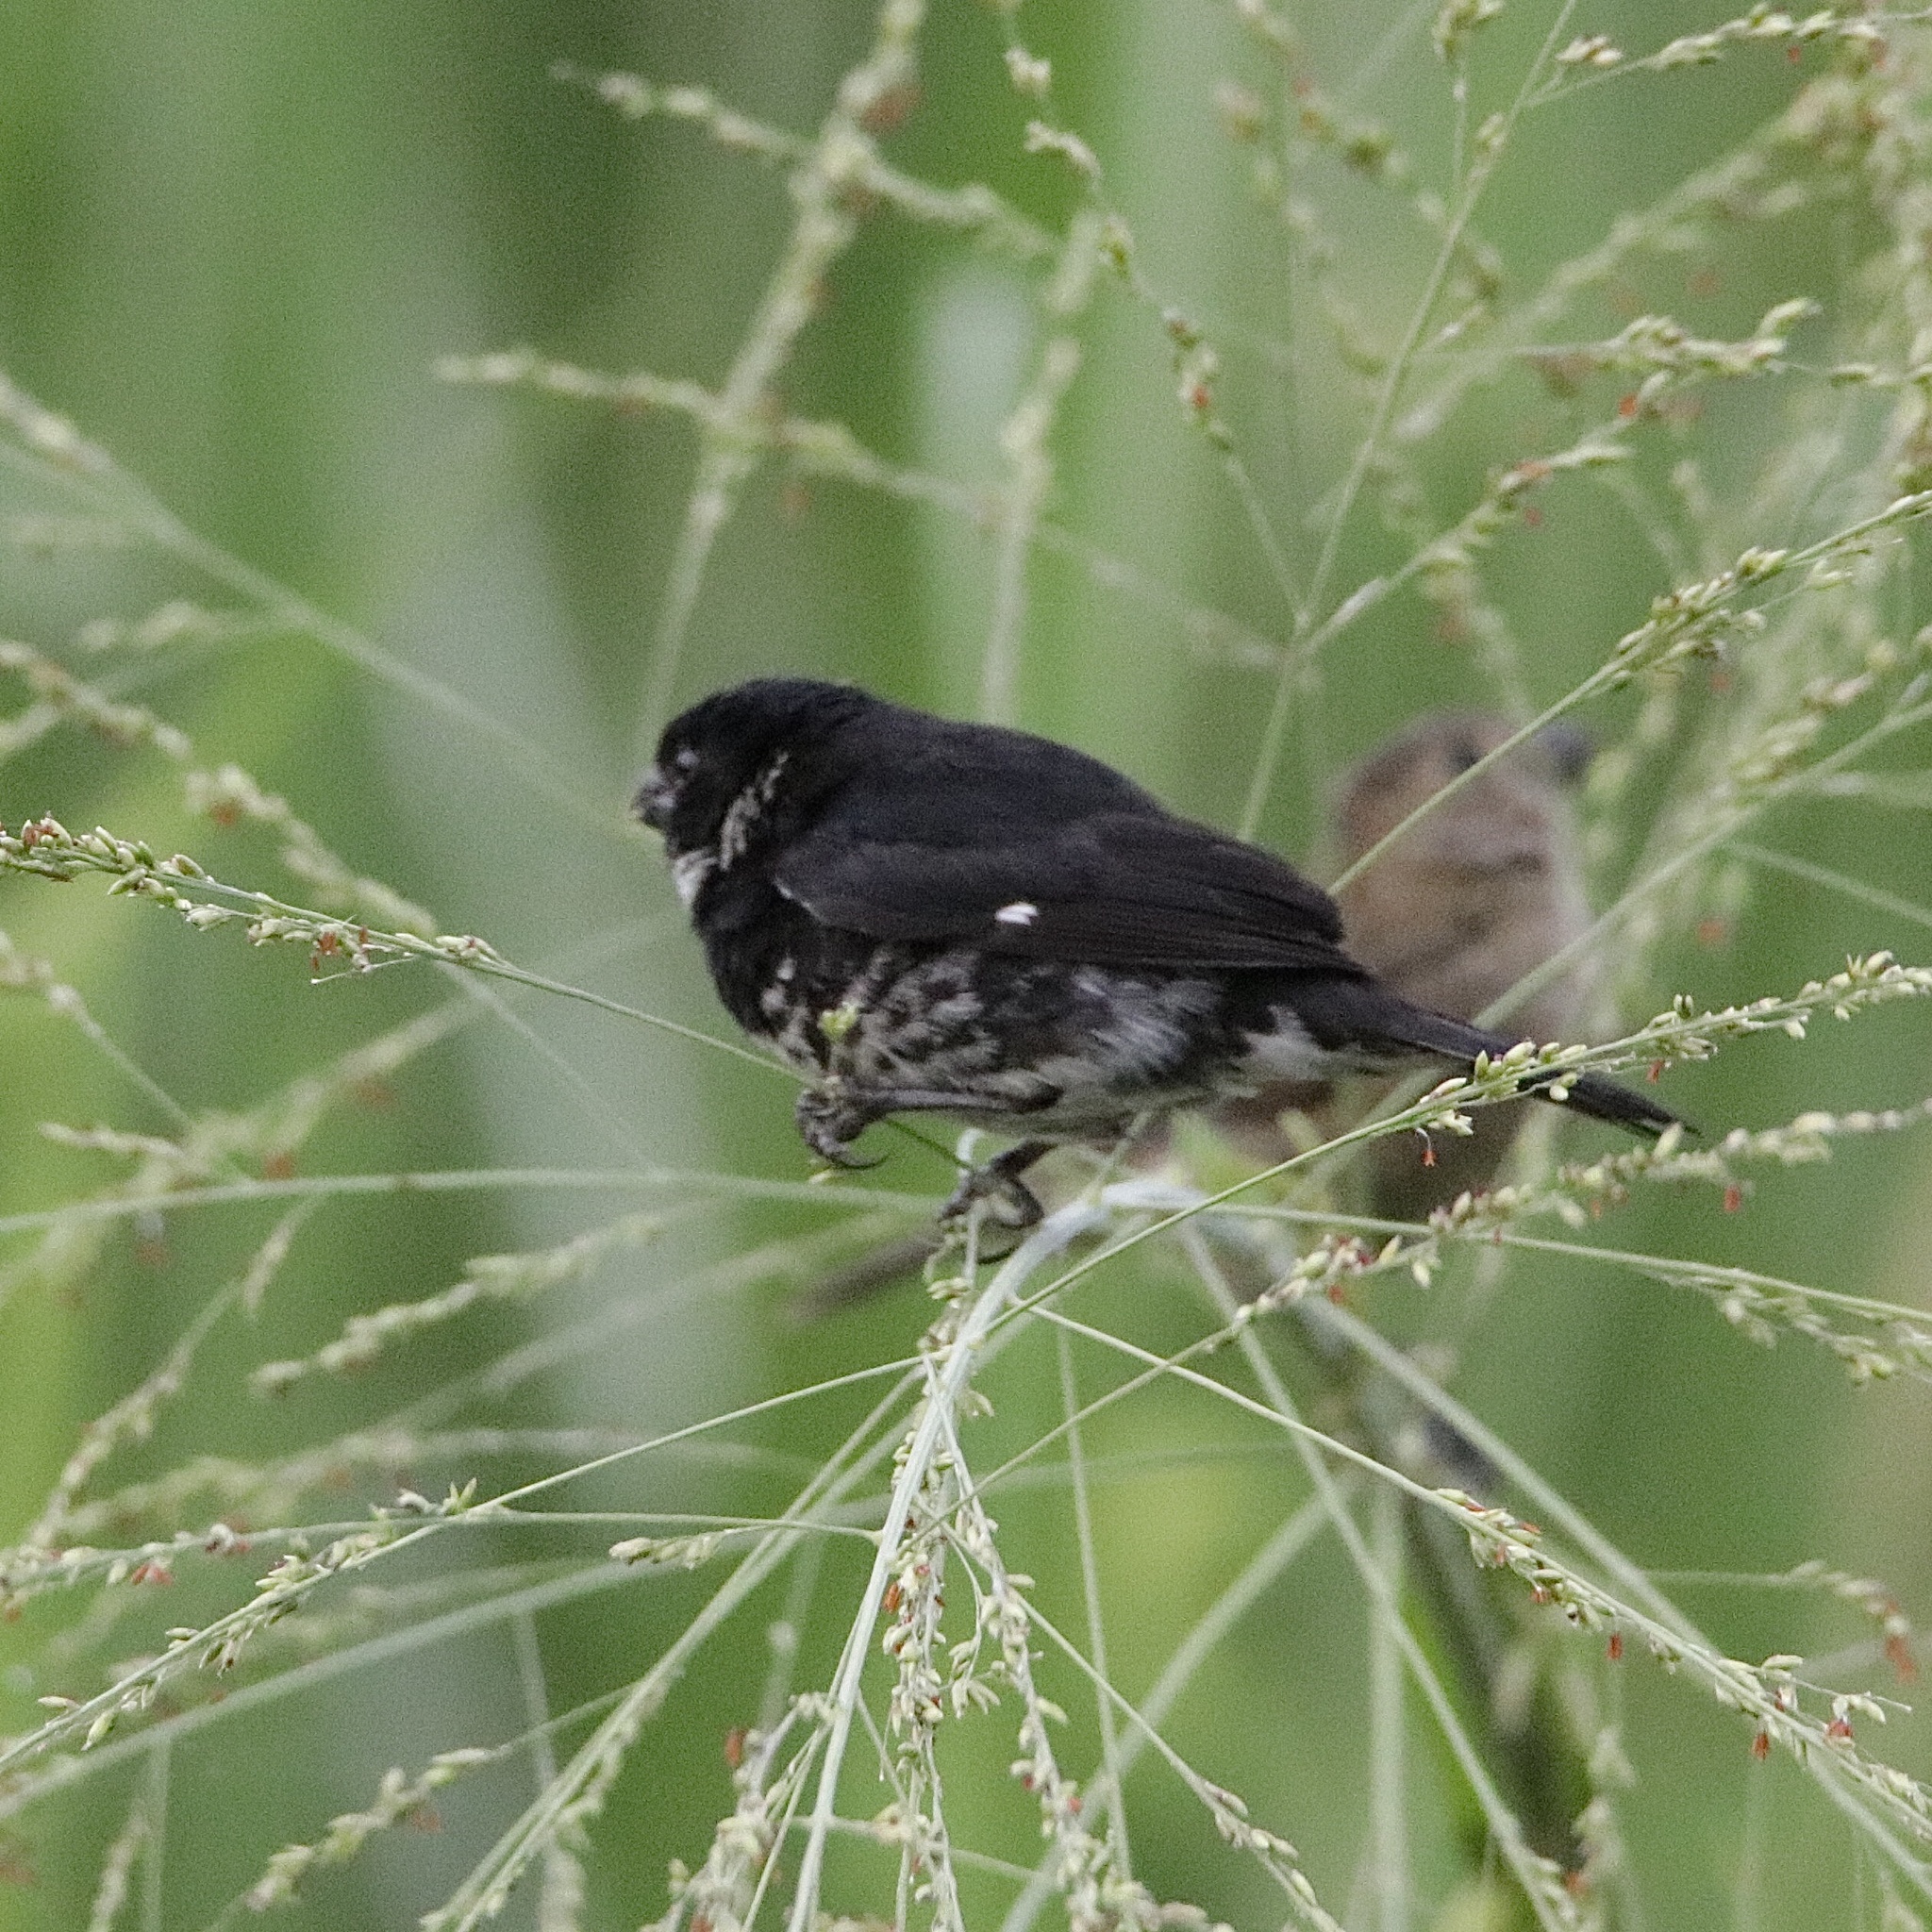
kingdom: Animalia
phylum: Chordata
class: Aves
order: Passeriformes
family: Thraupidae
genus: Sporophila
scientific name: Sporophila corvina
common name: Variable seedeater
